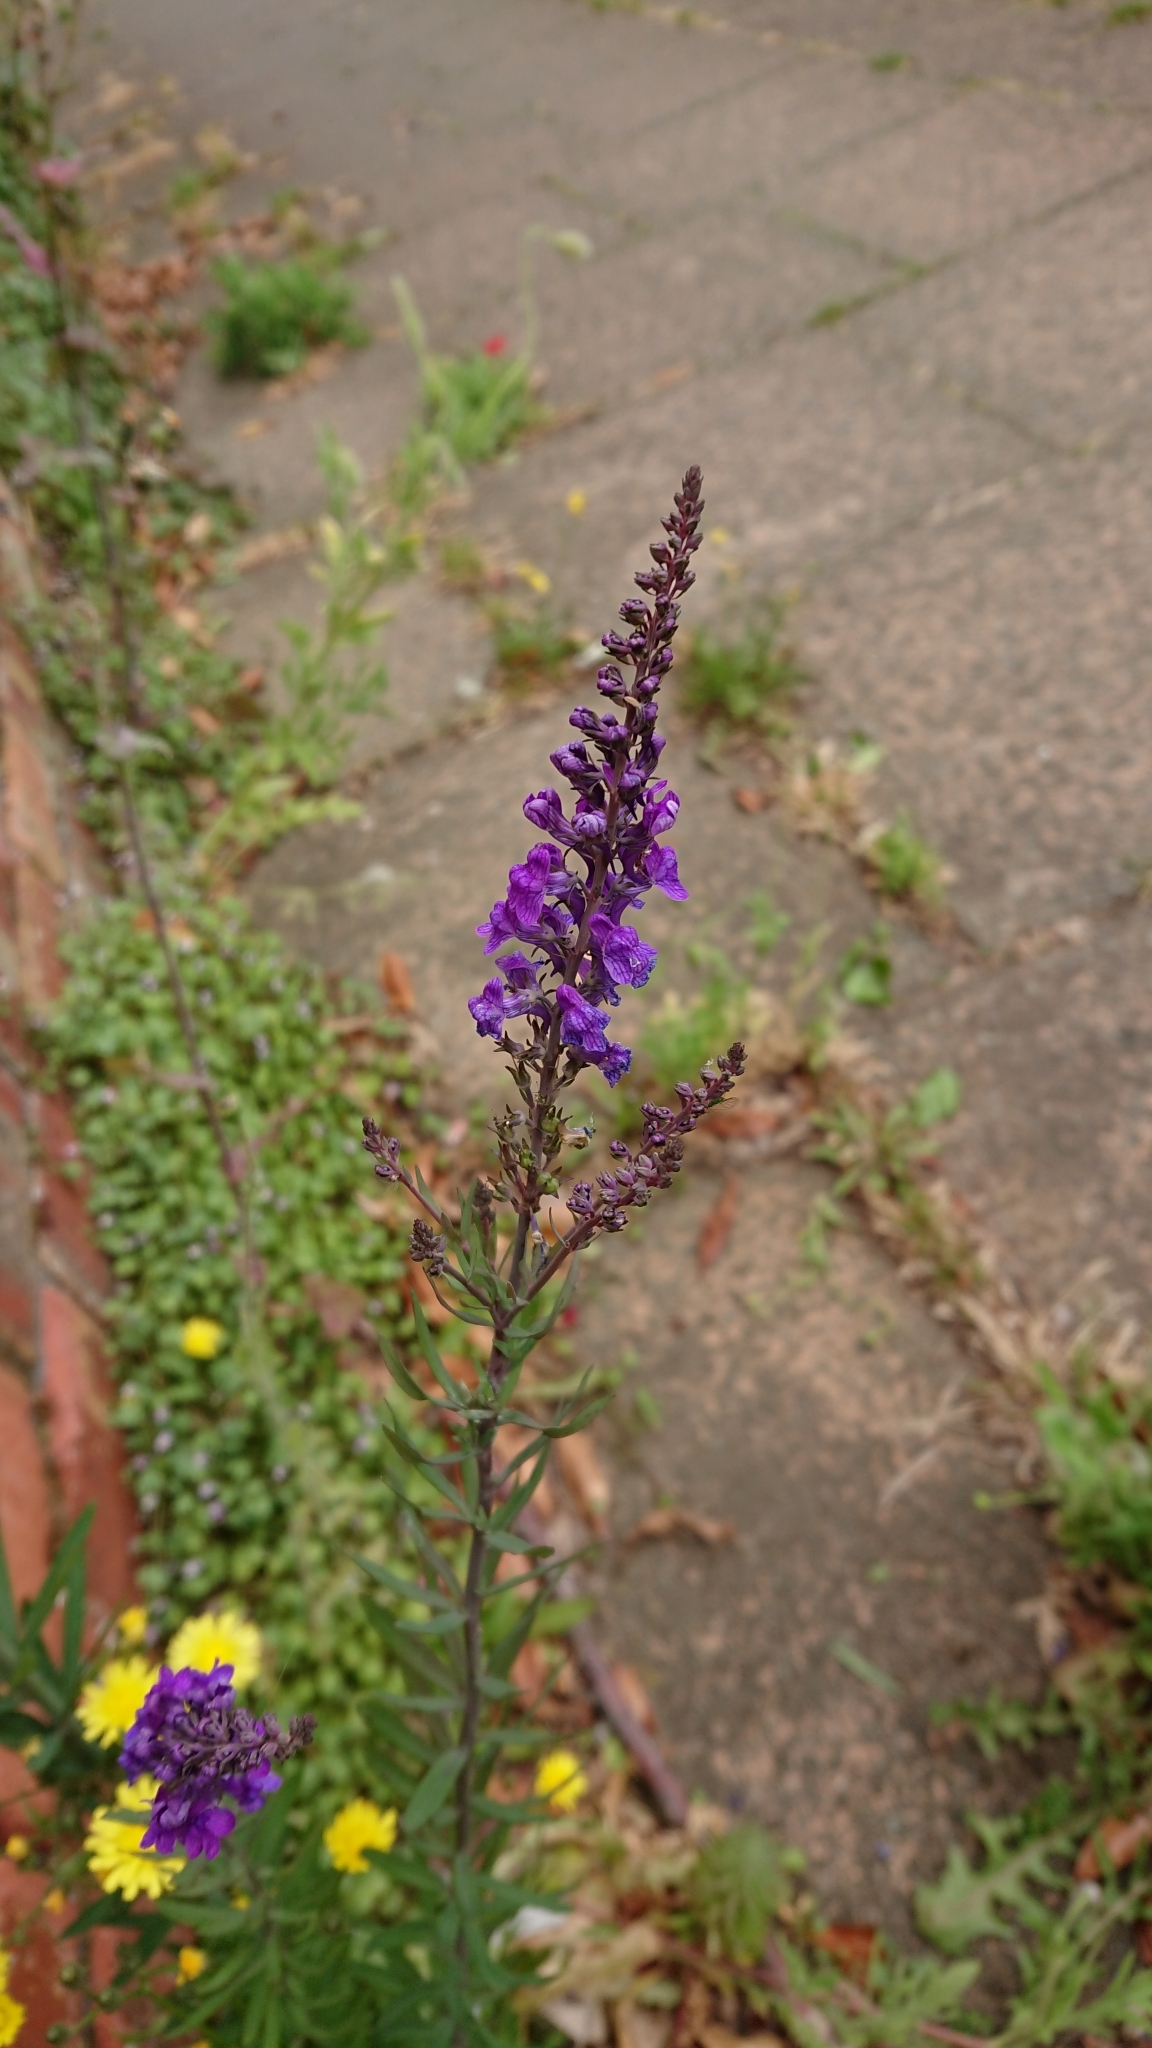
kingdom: Plantae
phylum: Tracheophyta
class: Magnoliopsida
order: Lamiales
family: Plantaginaceae
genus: Linaria
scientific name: Linaria purpurea
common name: Purple toadflax
